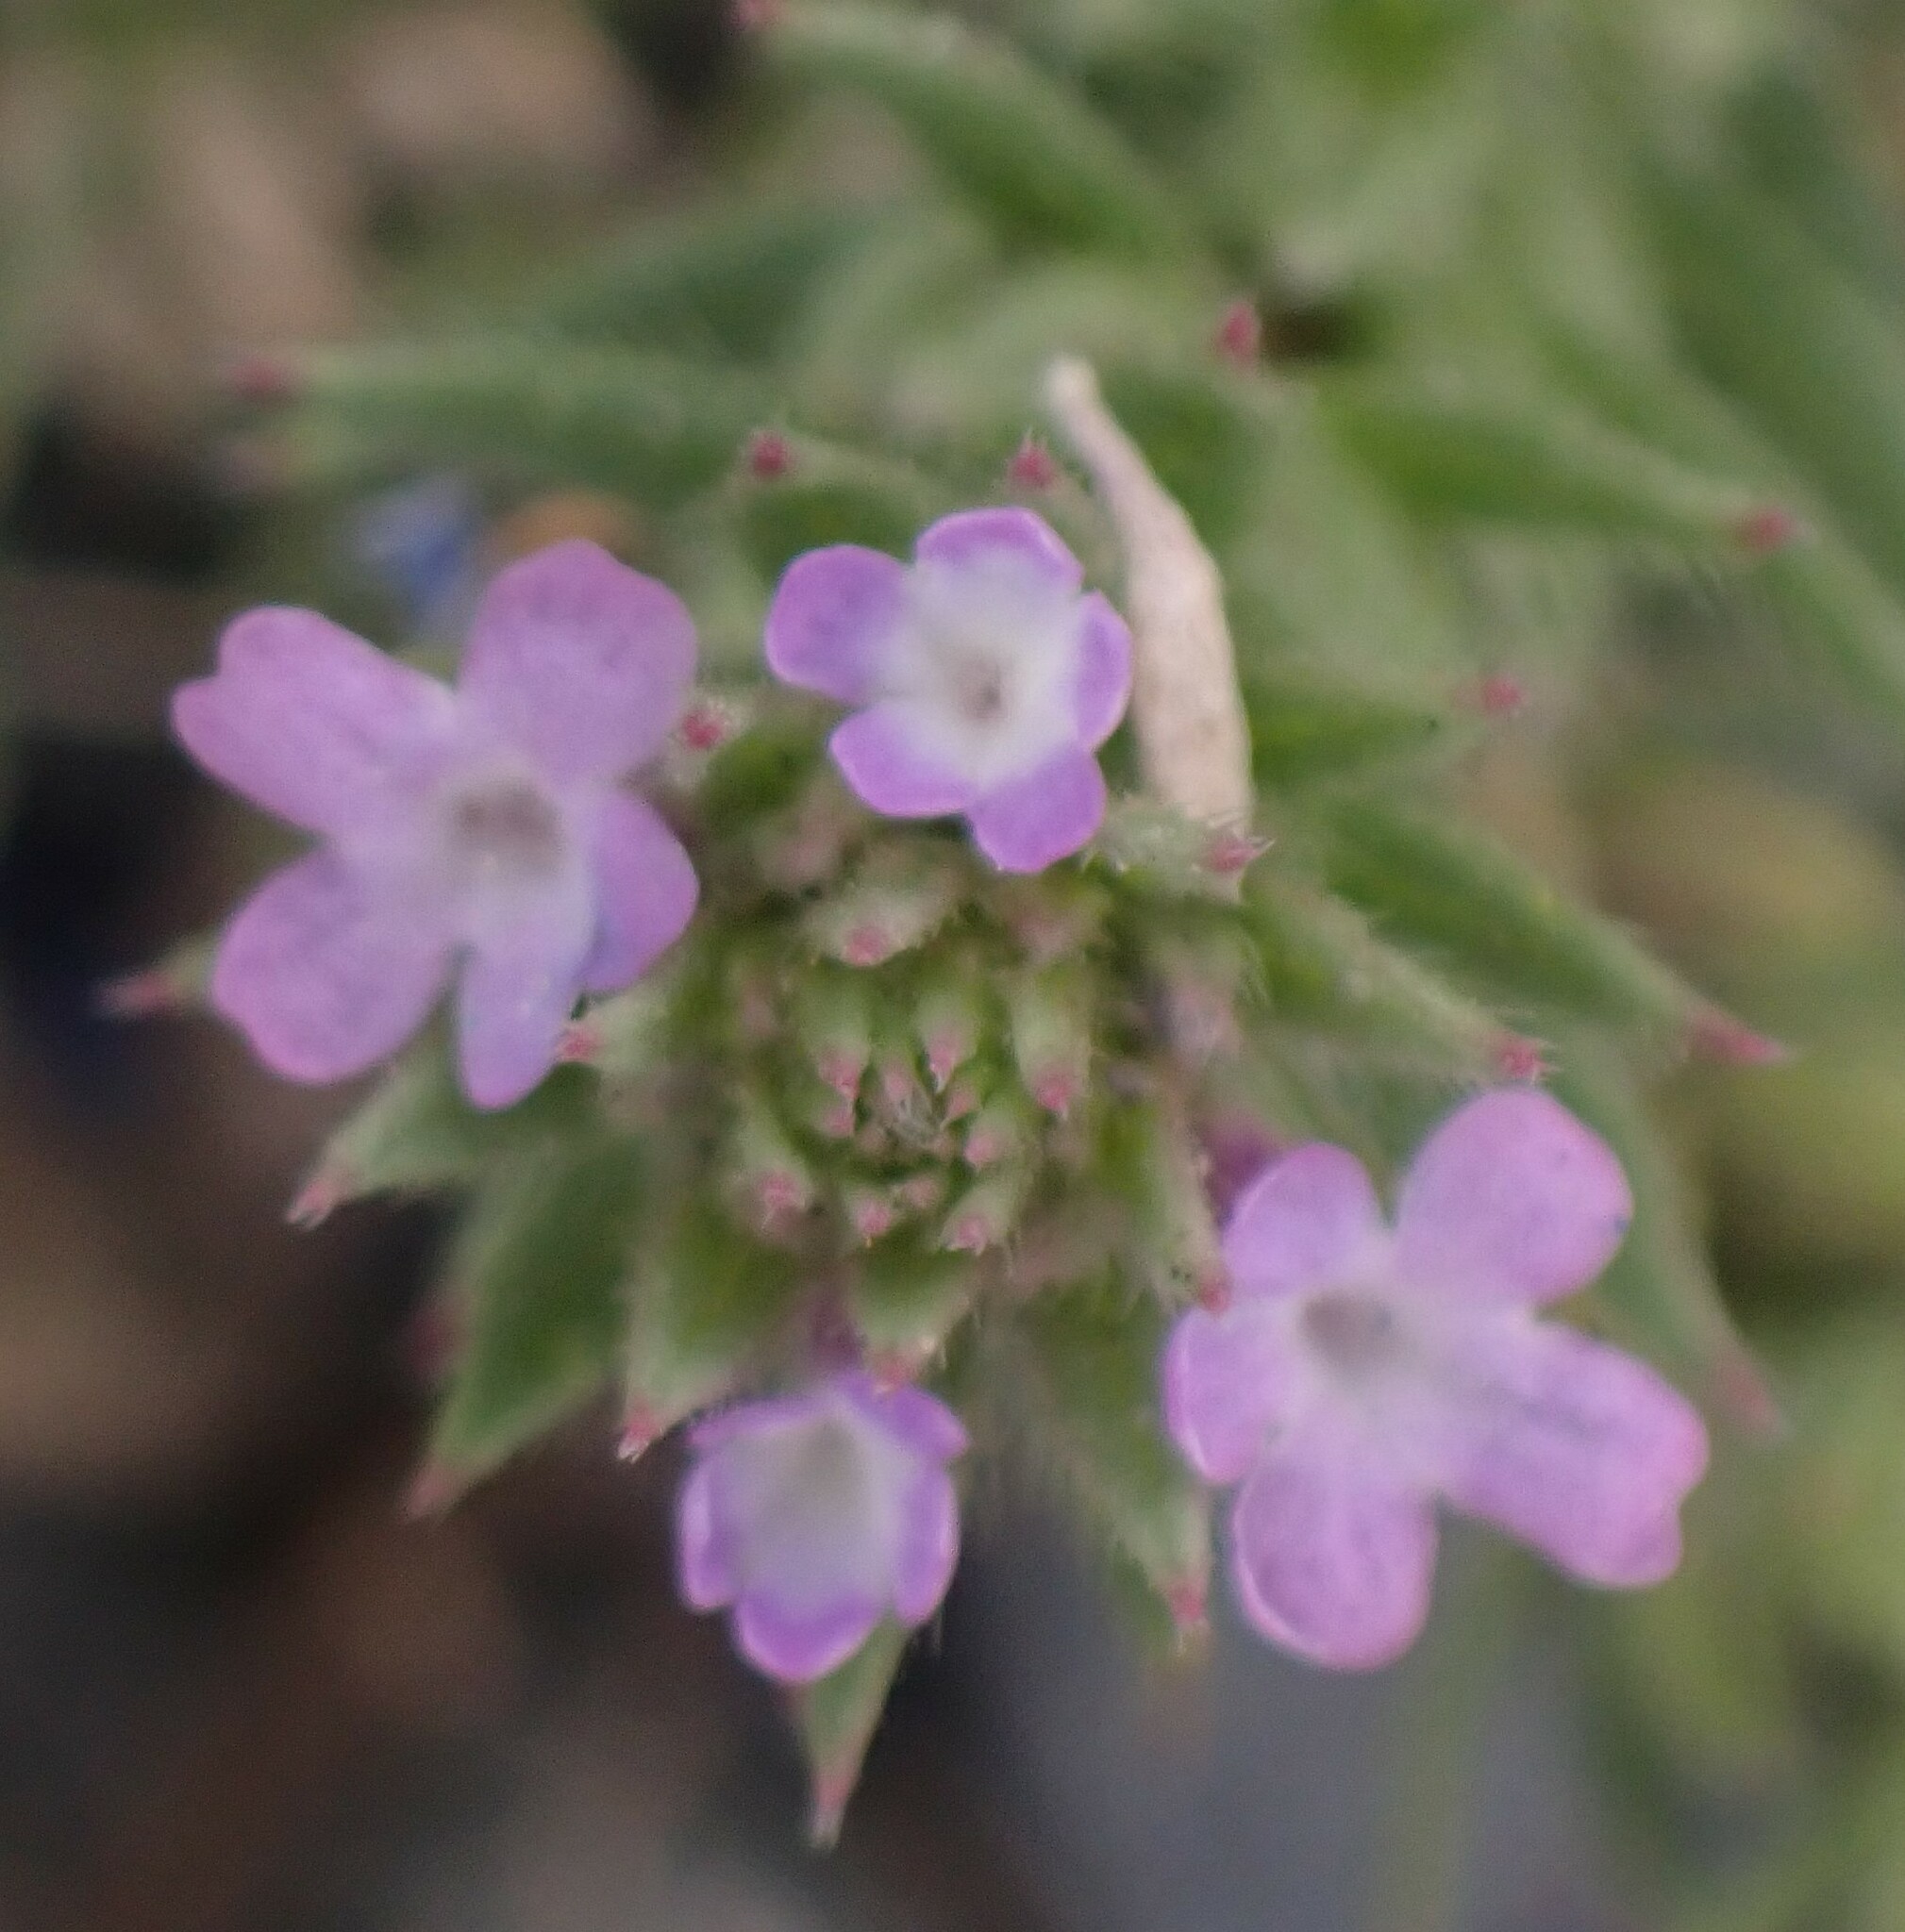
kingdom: Plantae
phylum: Tracheophyta
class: Magnoliopsida
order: Lamiales
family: Verbenaceae
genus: Verbena
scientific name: Verbena bracteata
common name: Bracted vervain
